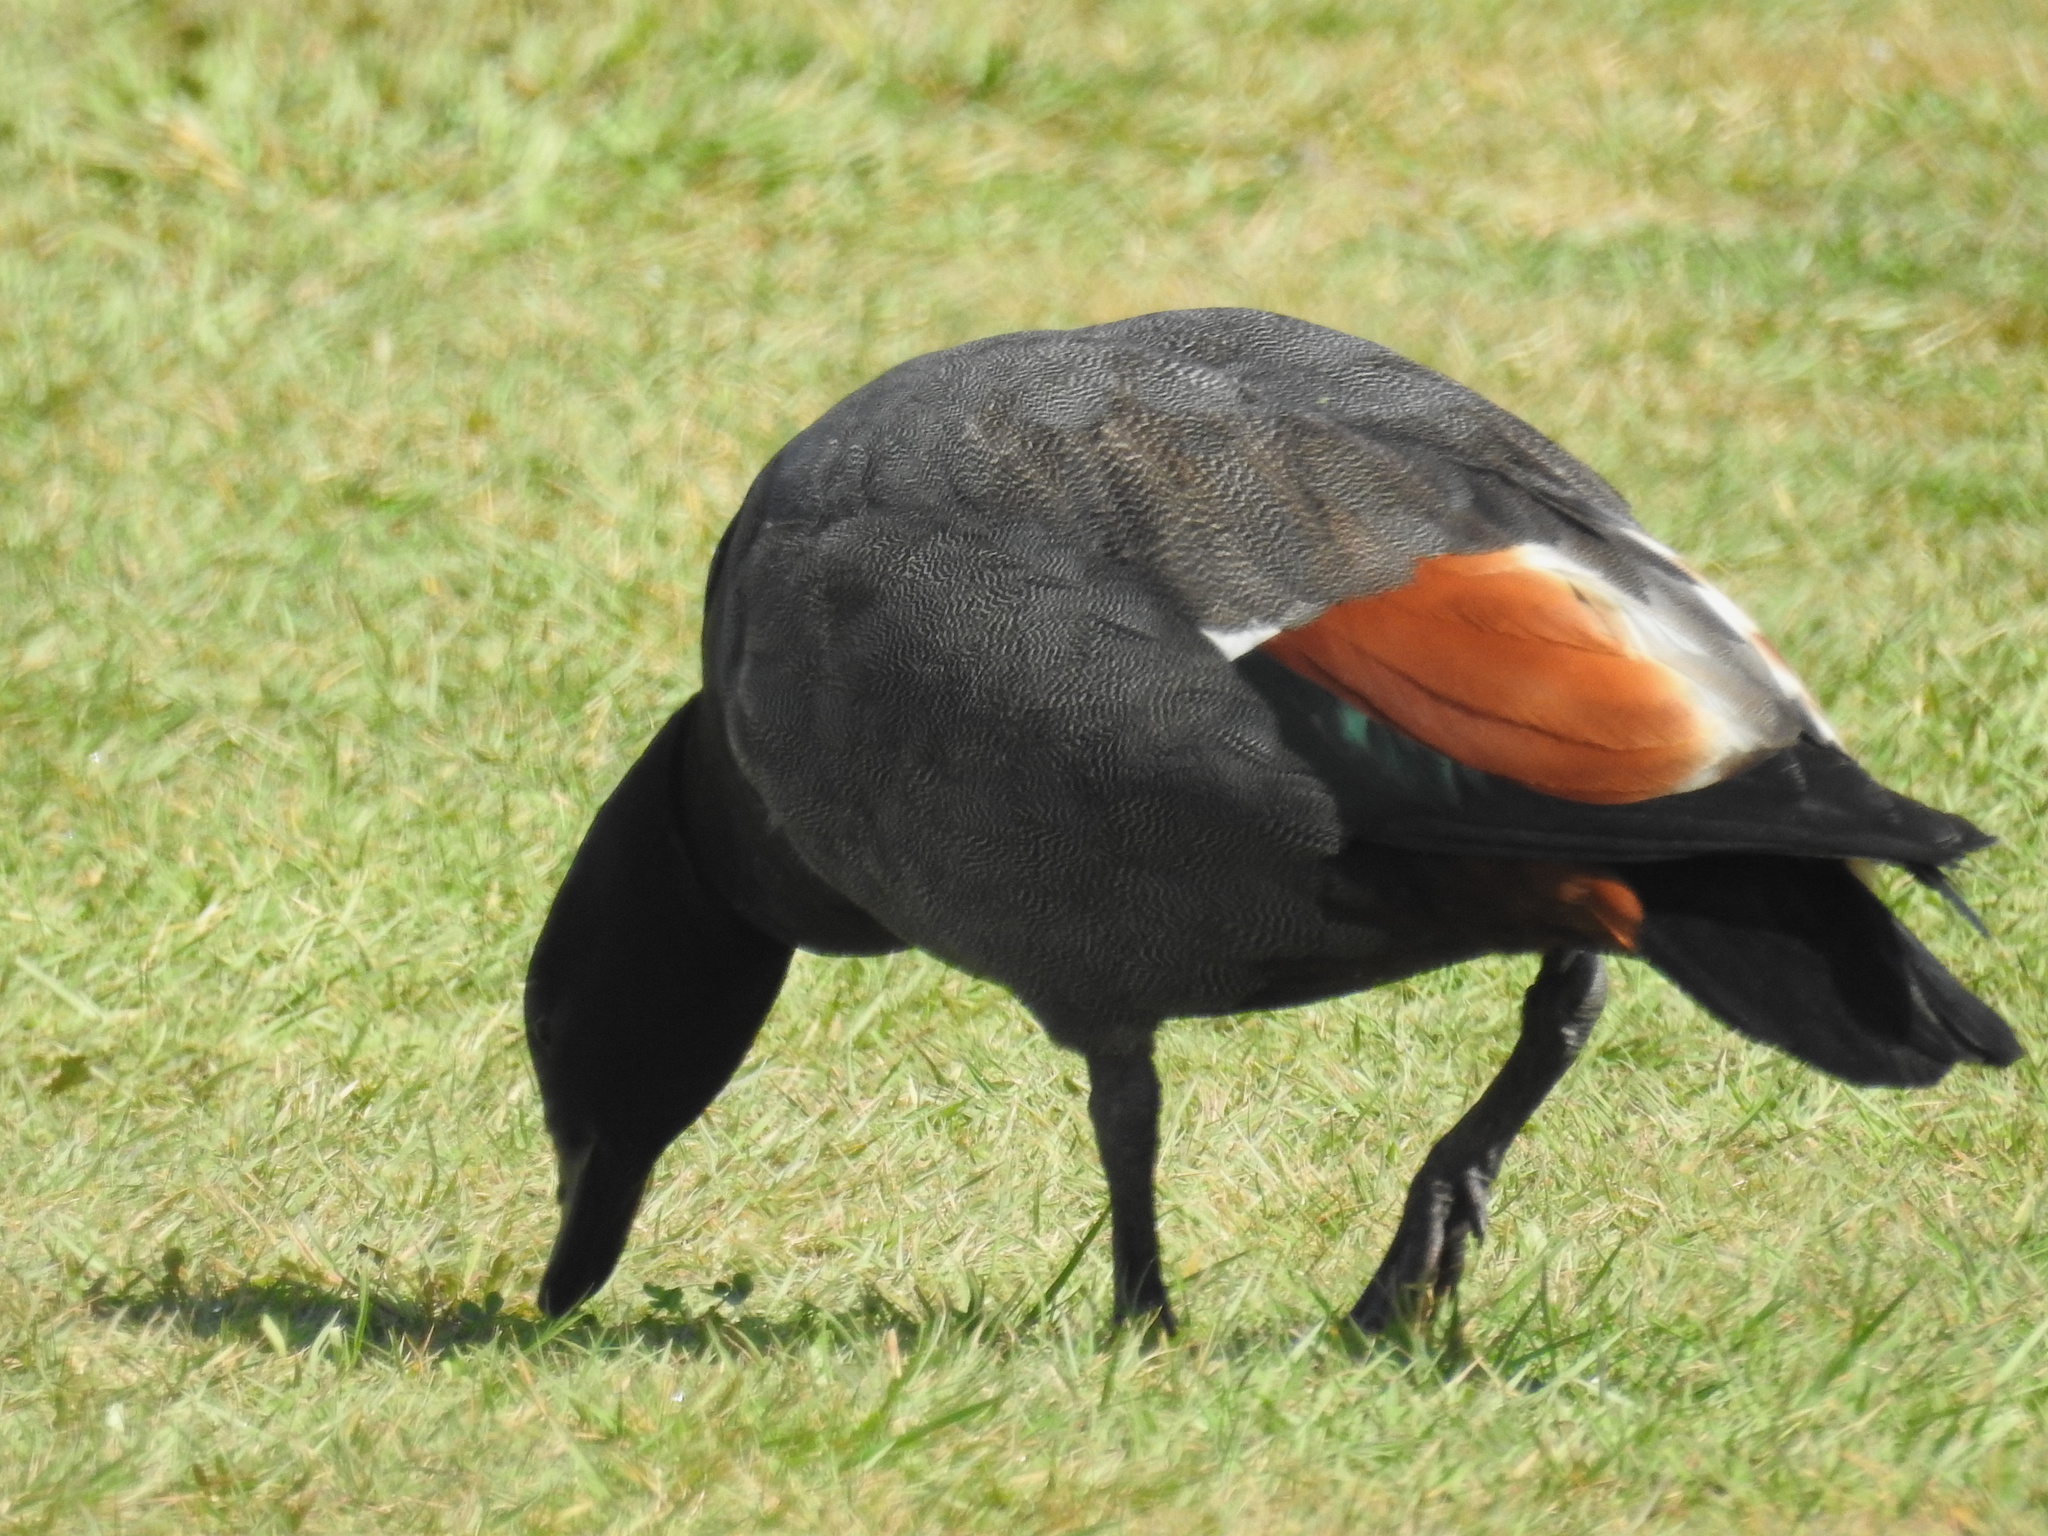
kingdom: Animalia
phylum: Chordata
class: Aves
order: Anseriformes
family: Anatidae
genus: Tadorna
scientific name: Tadorna variegata
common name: Paradise shelduck
